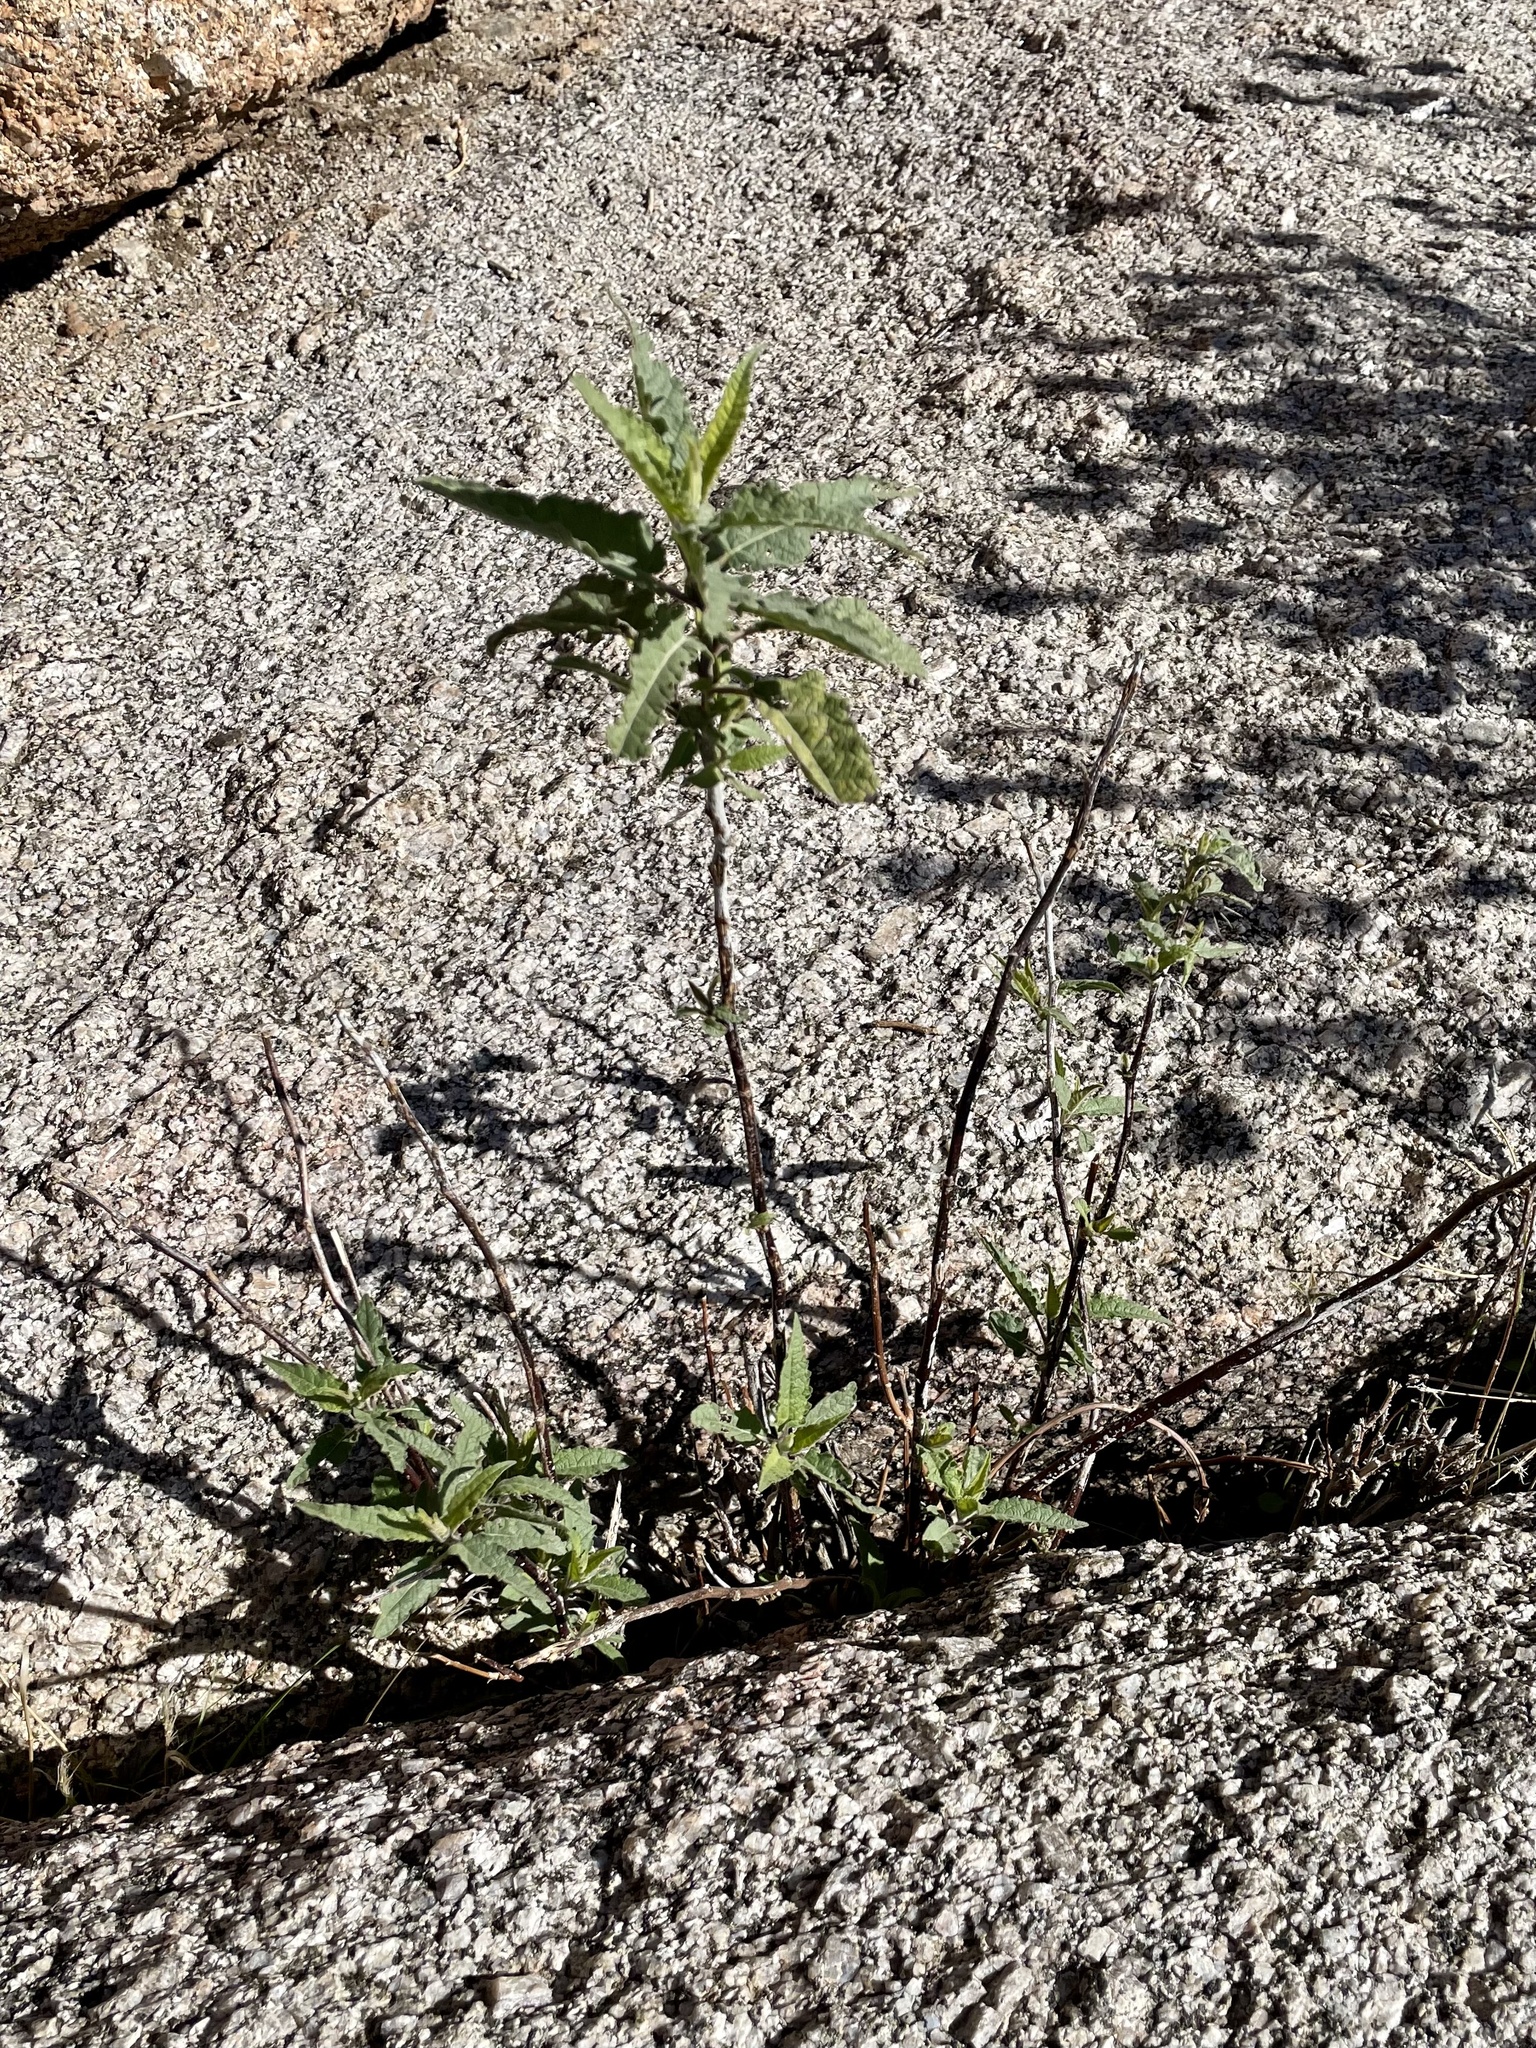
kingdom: Plantae
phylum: Tracheophyta
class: Magnoliopsida
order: Asterales
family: Asteraceae
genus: Ambrosia
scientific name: Ambrosia ambrosioides
